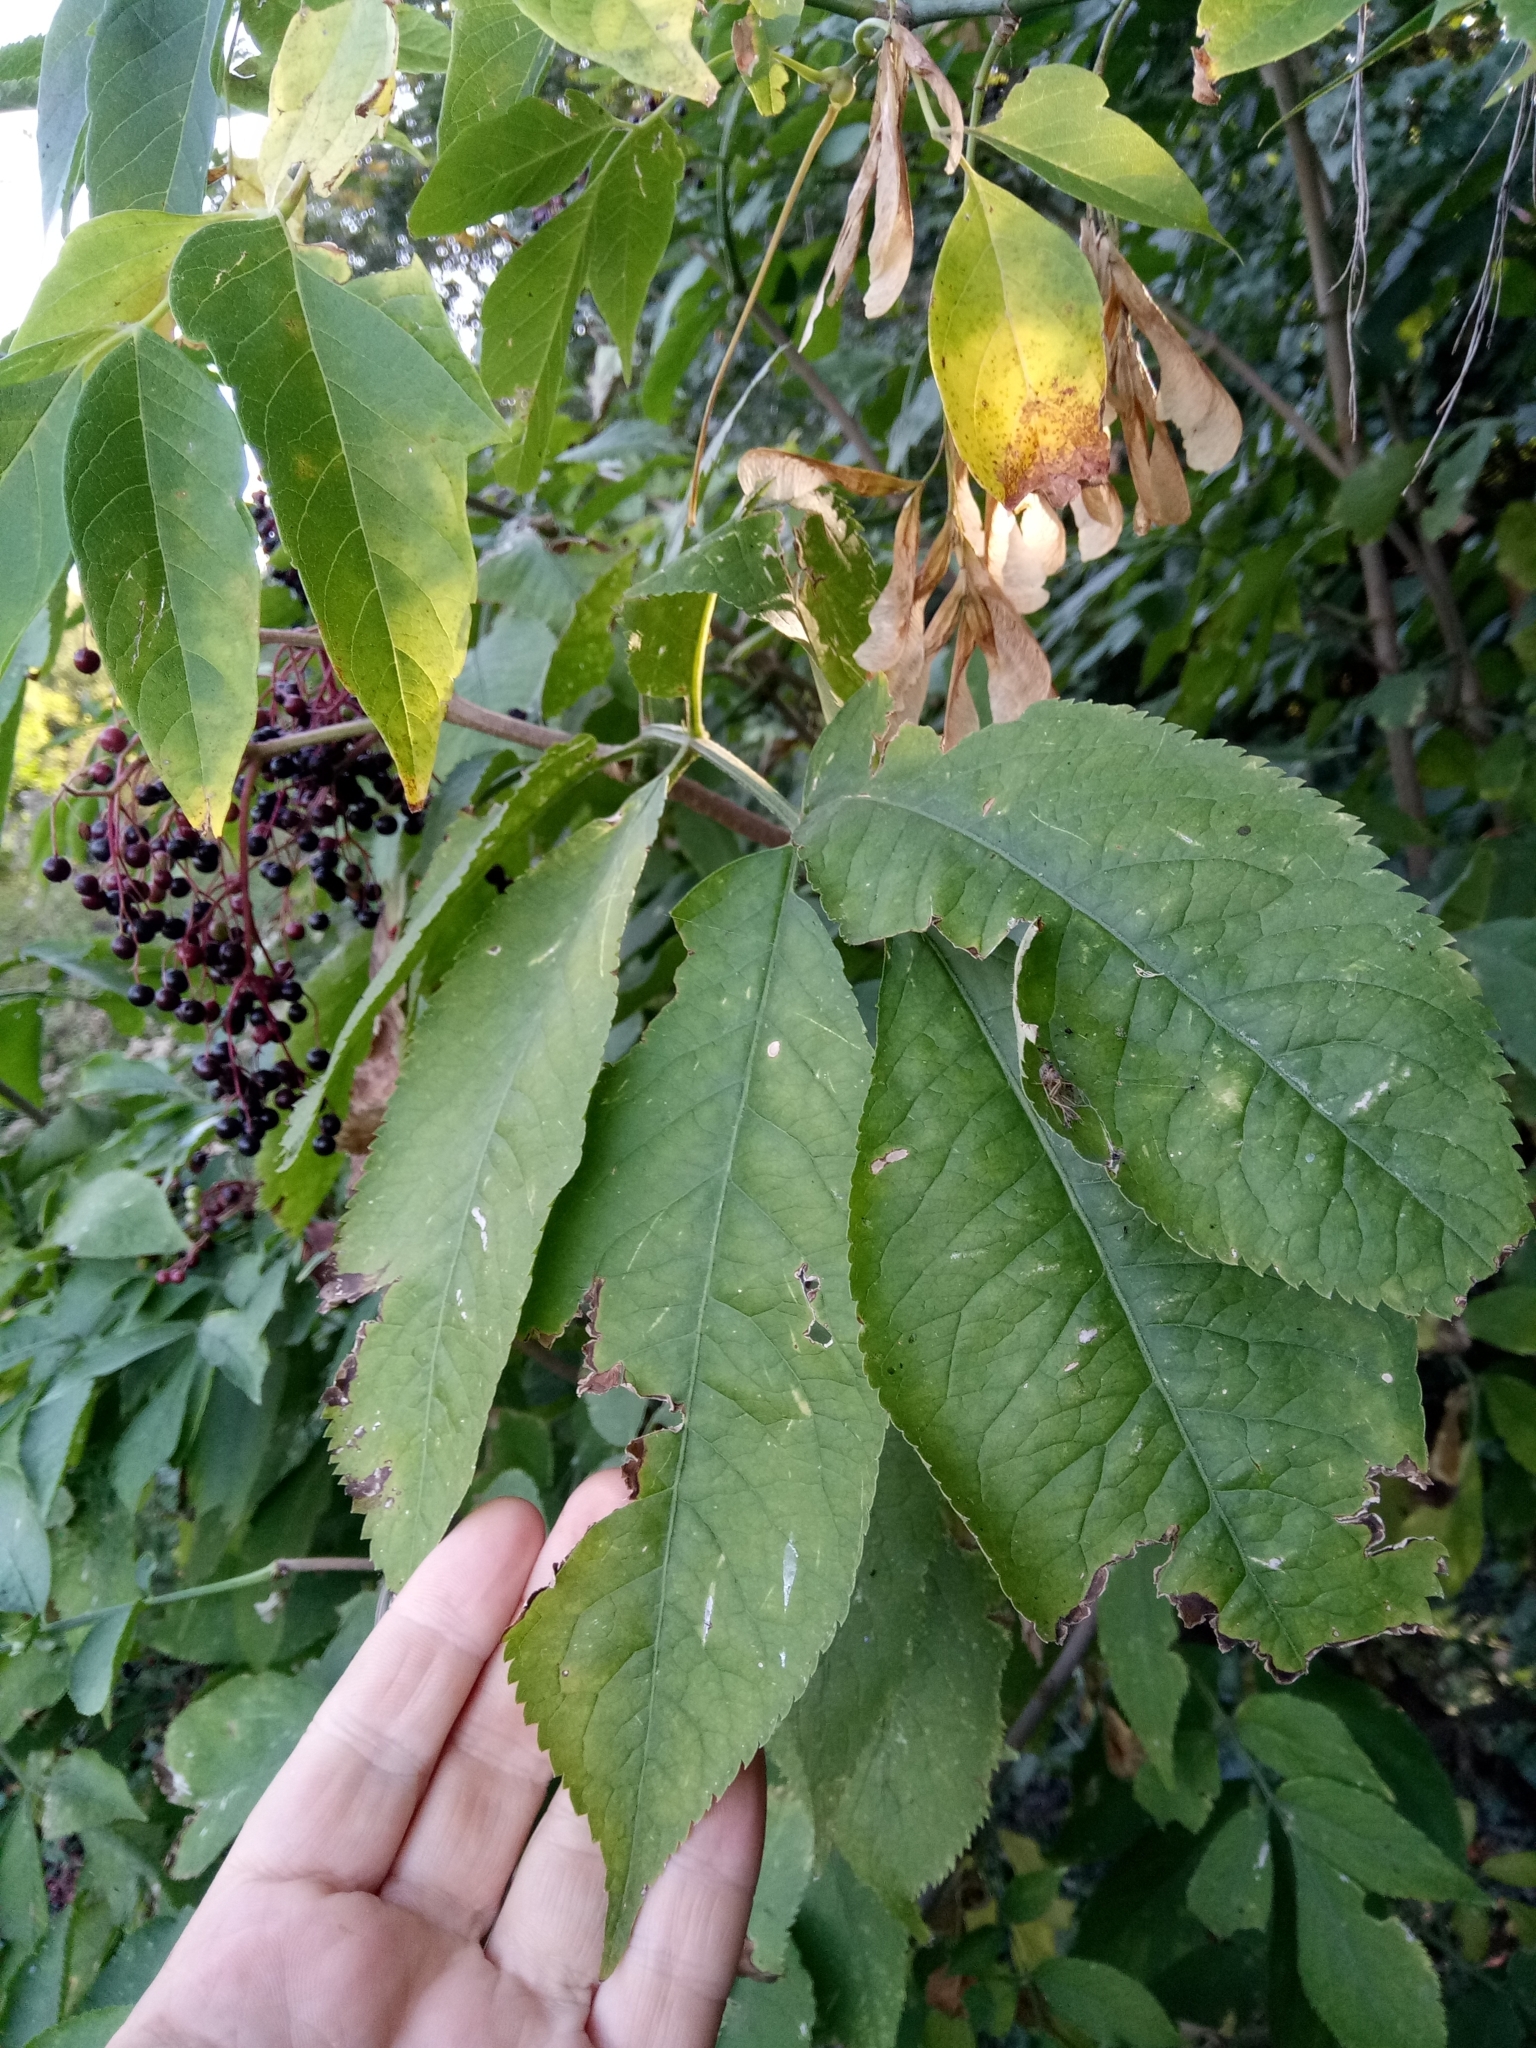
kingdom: Plantae
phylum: Tracheophyta
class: Magnoliopsida
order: Sapindales
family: Sapindaceae
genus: Acer
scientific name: Acer negundo
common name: Ashleaf maple
